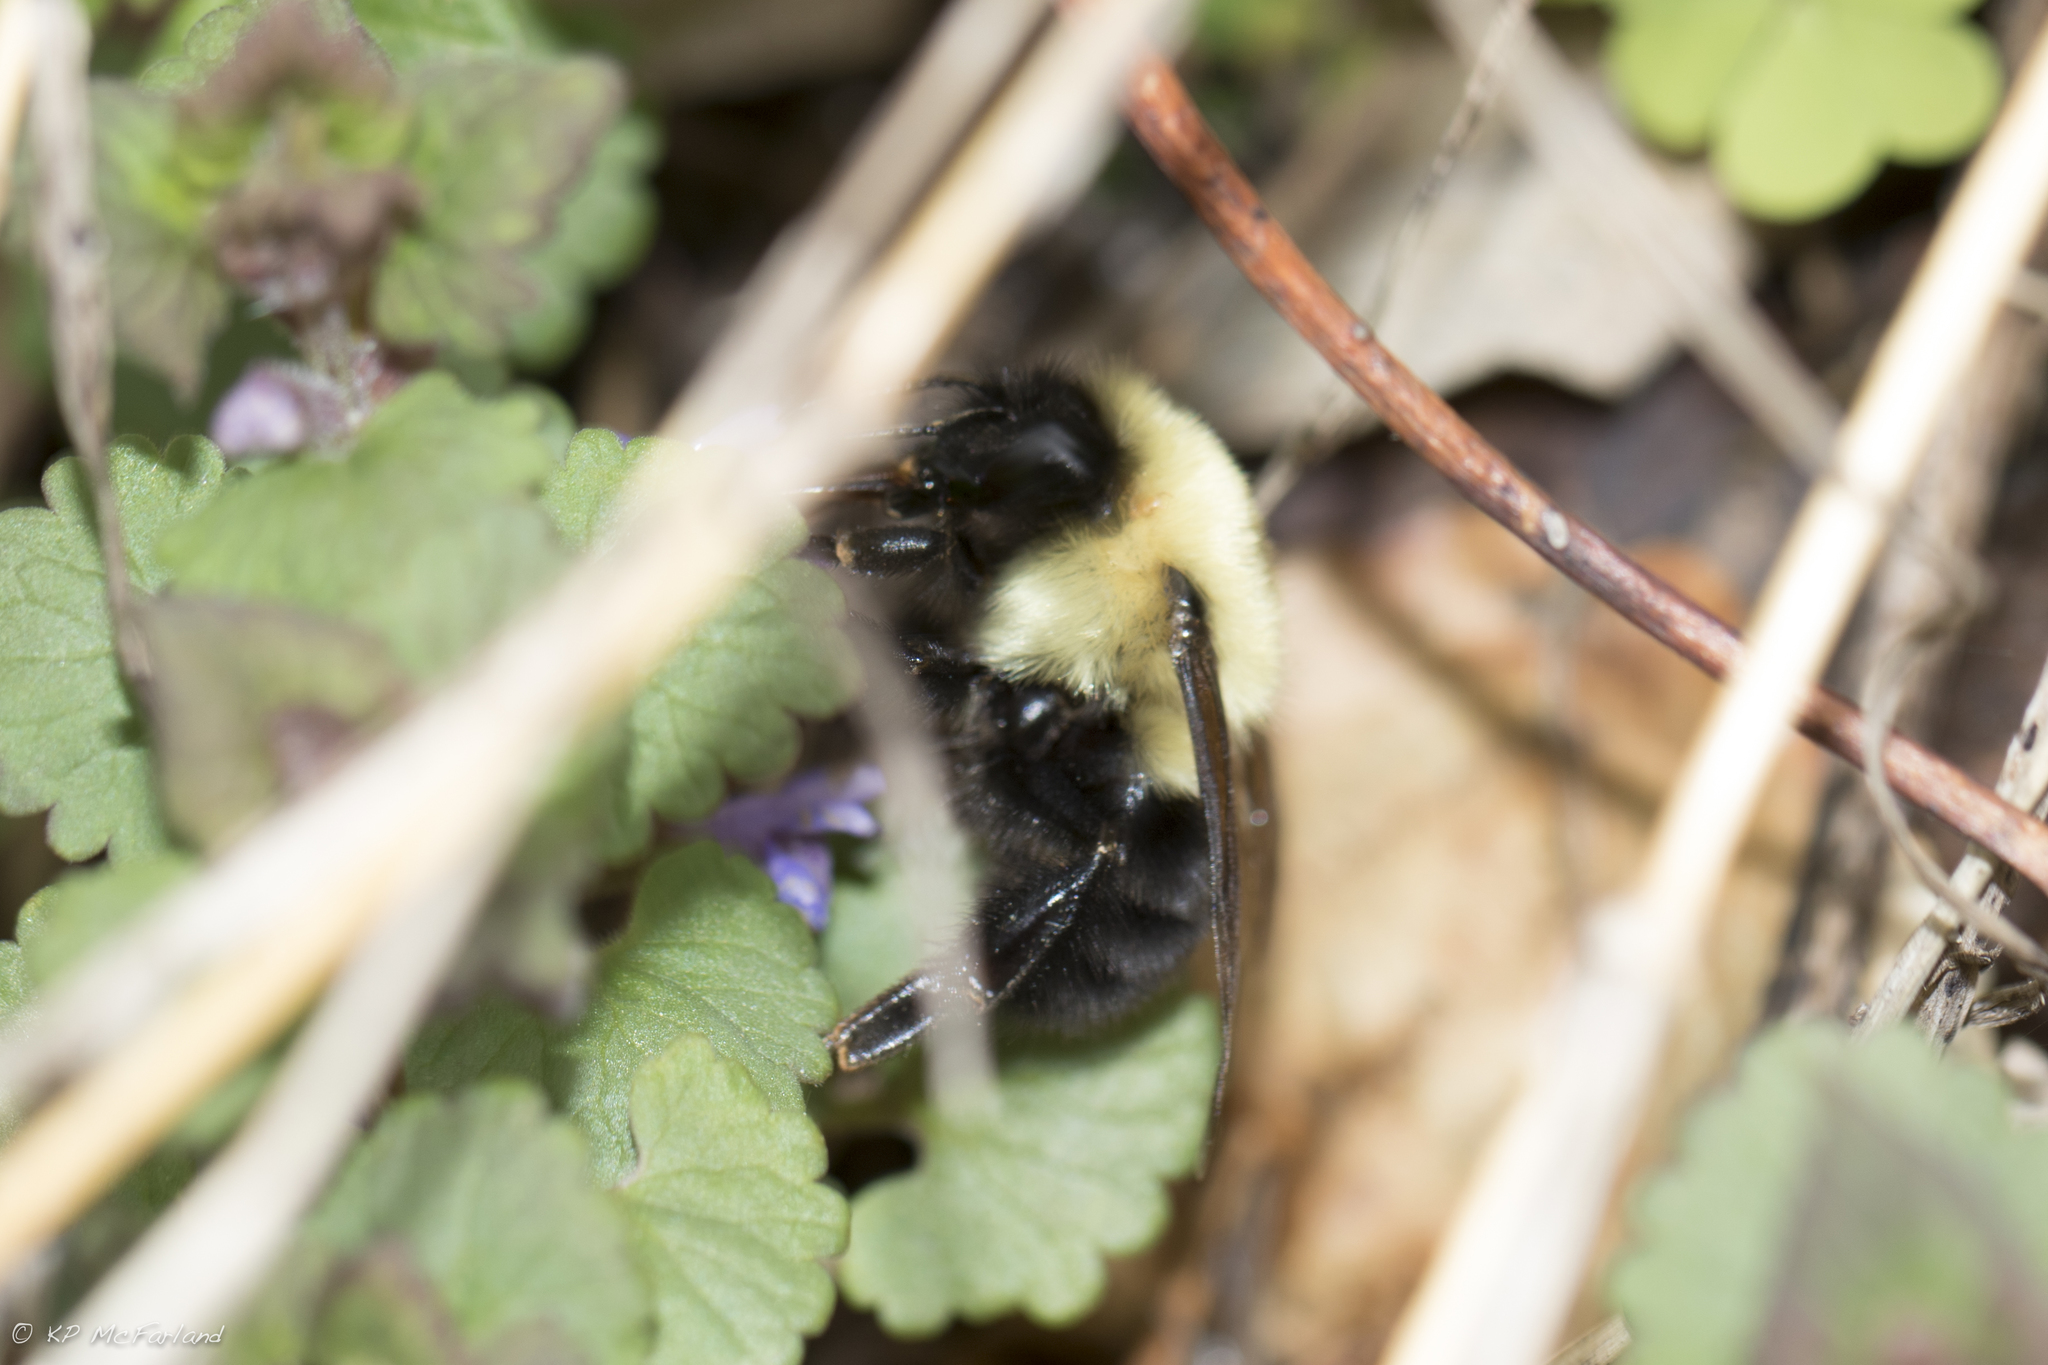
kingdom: Animalia
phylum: Arthropoda
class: Insecta
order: Hymenoptera
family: Apidae
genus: Bombus
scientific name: Bombus bimaculatus
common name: Two-spotted bumble bee
